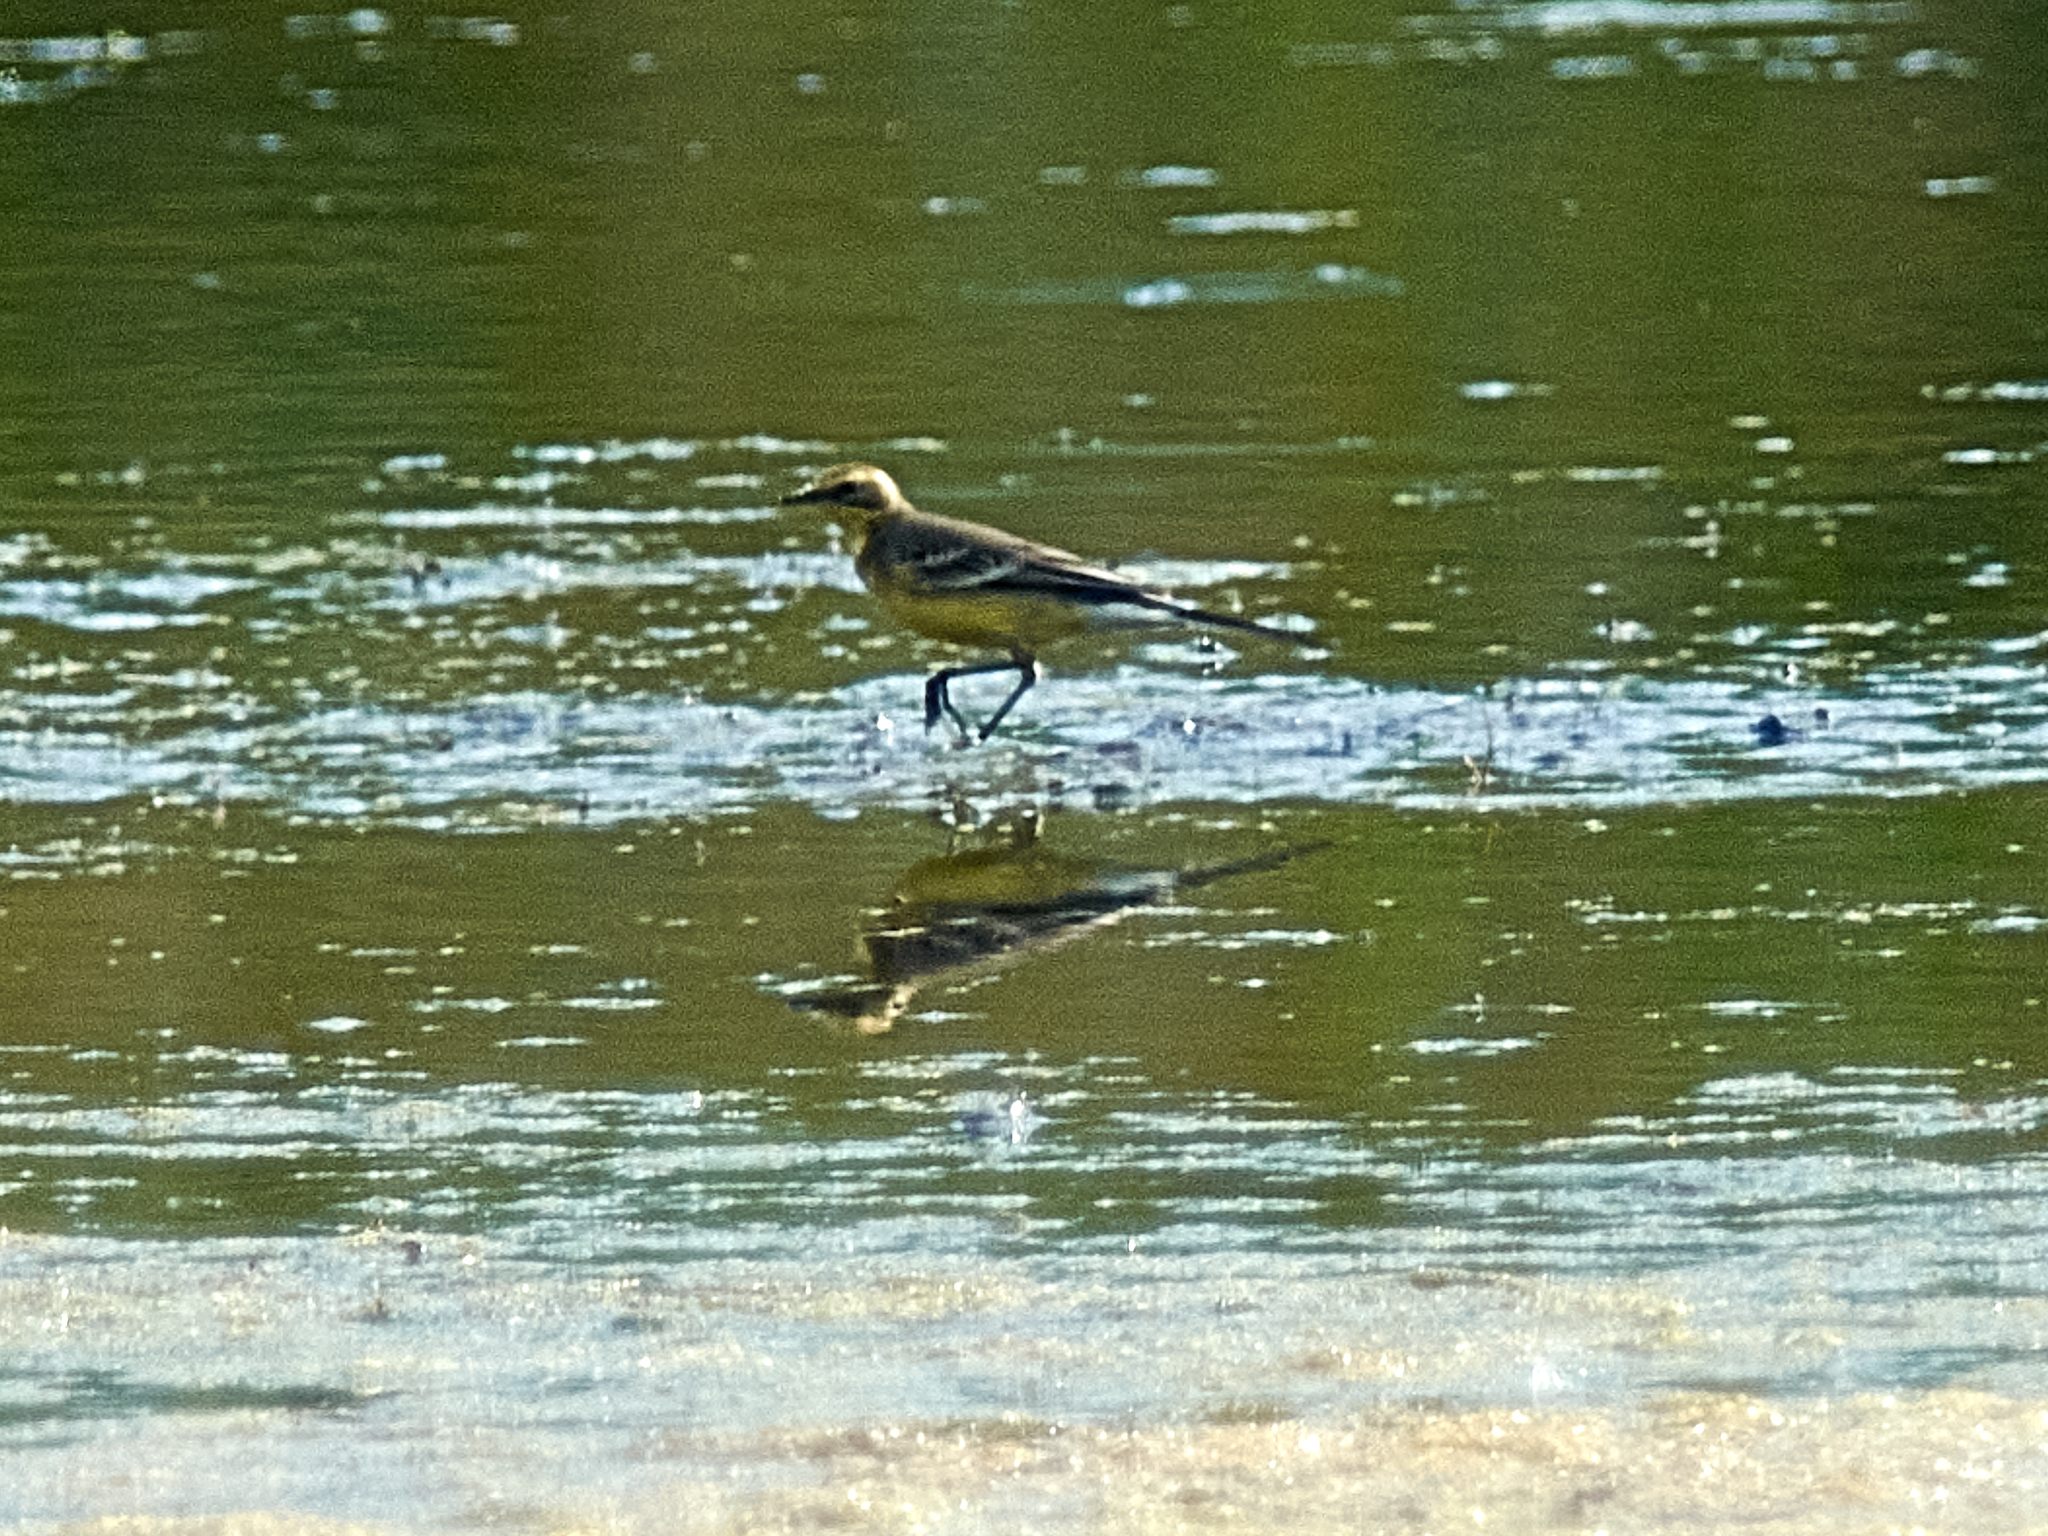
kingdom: Animalia
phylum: Chordata
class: Aves
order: Passeriformes
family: Motacillidae
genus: Motacilla
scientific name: Motacilla citreola
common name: Citrine wagtail
